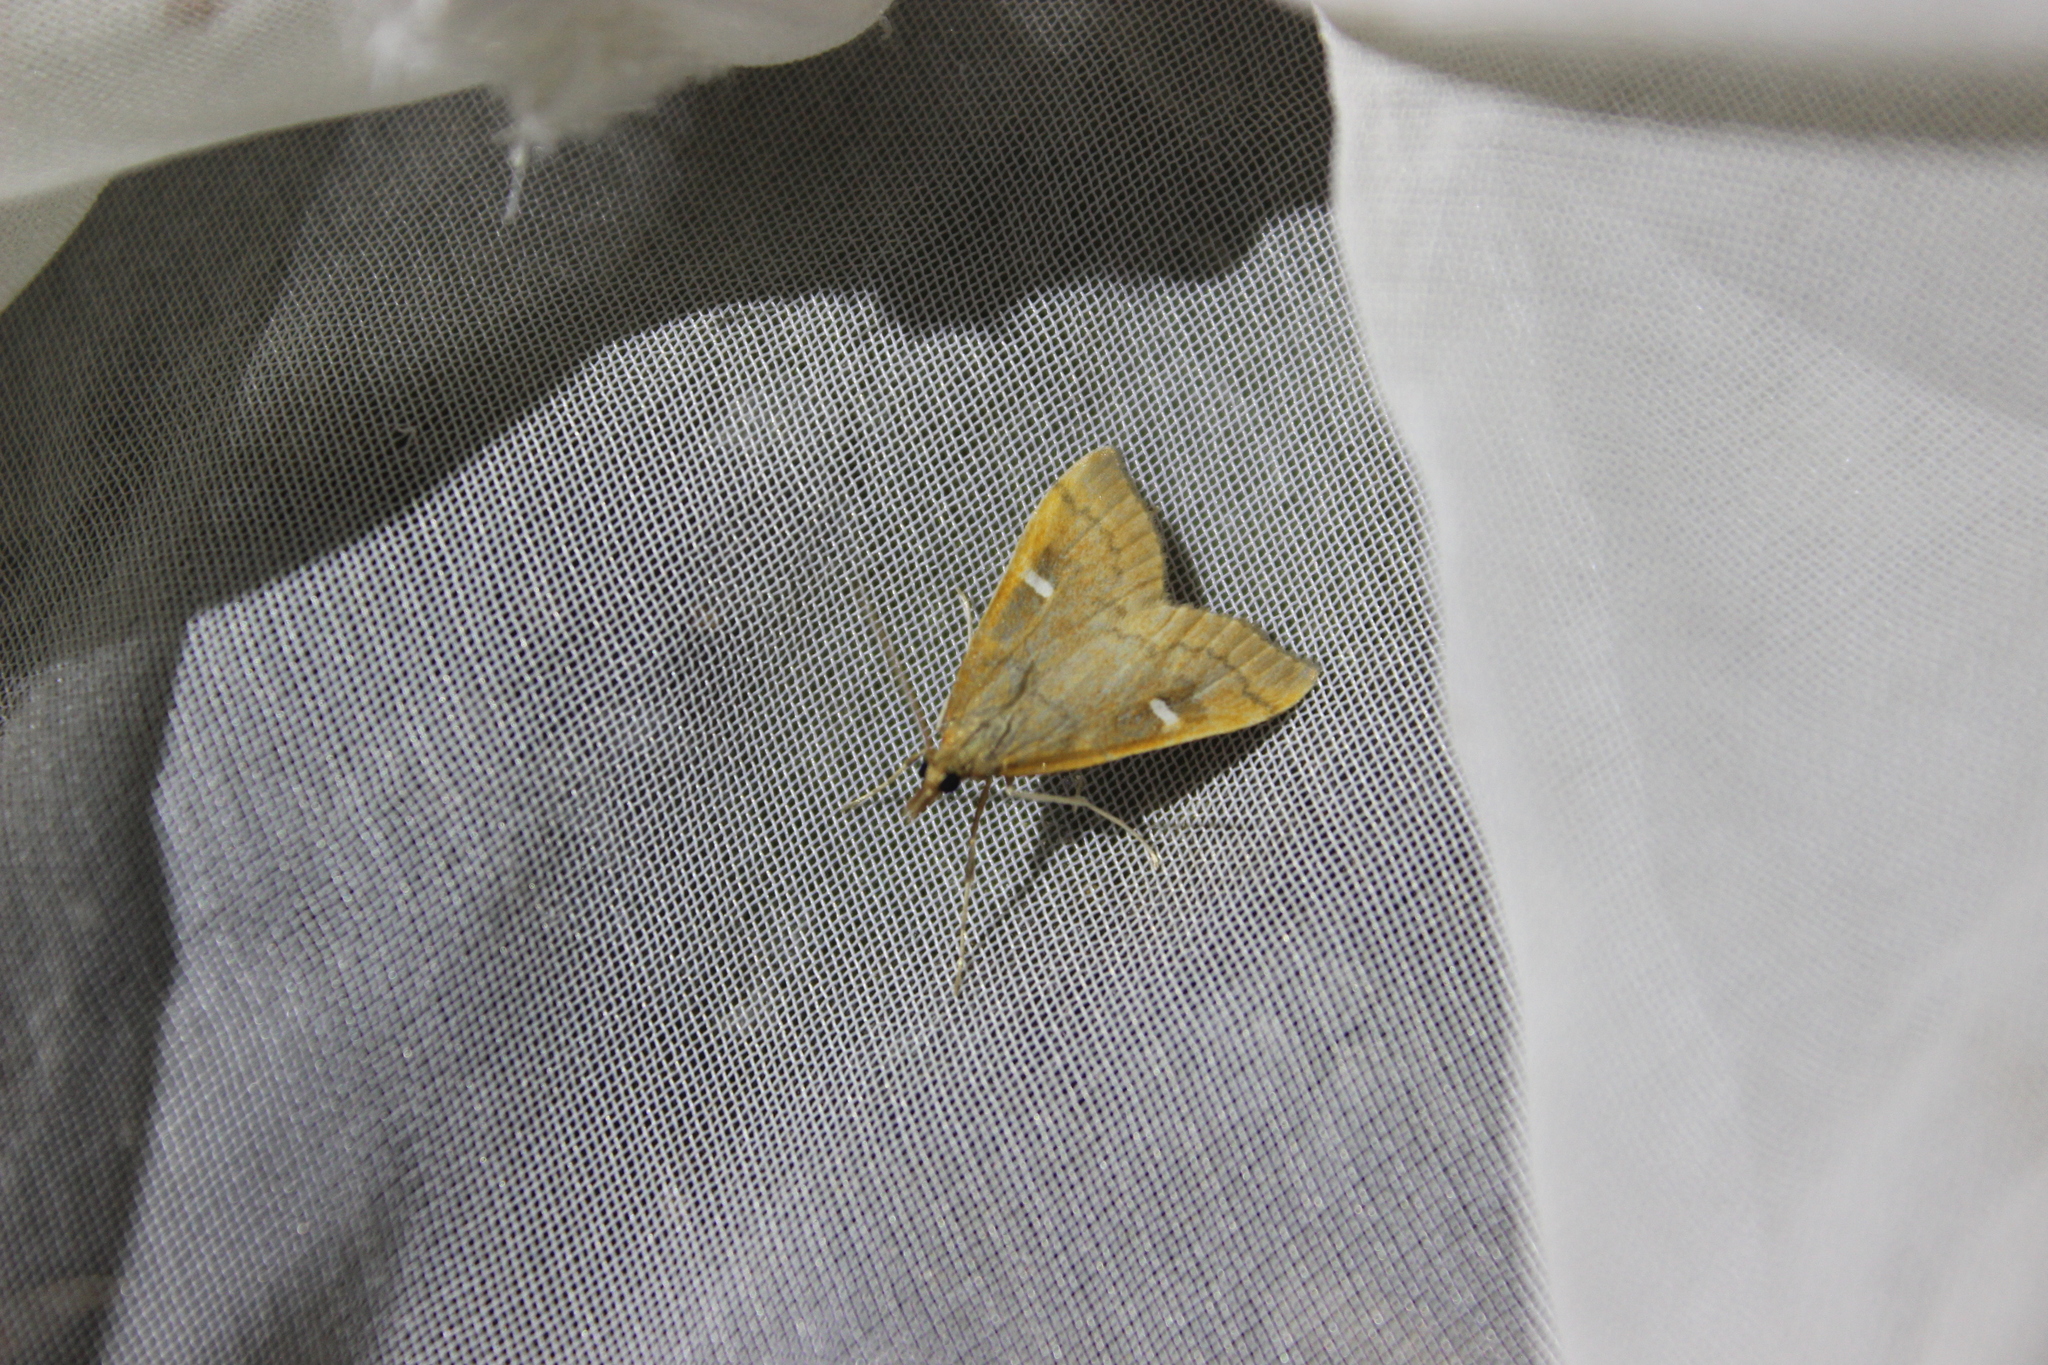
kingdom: Animalia
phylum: Arthropoda
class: Insecta
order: Lepidoptera
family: Crambidae
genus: Udea
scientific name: Udea Mnesictena flavidalis
